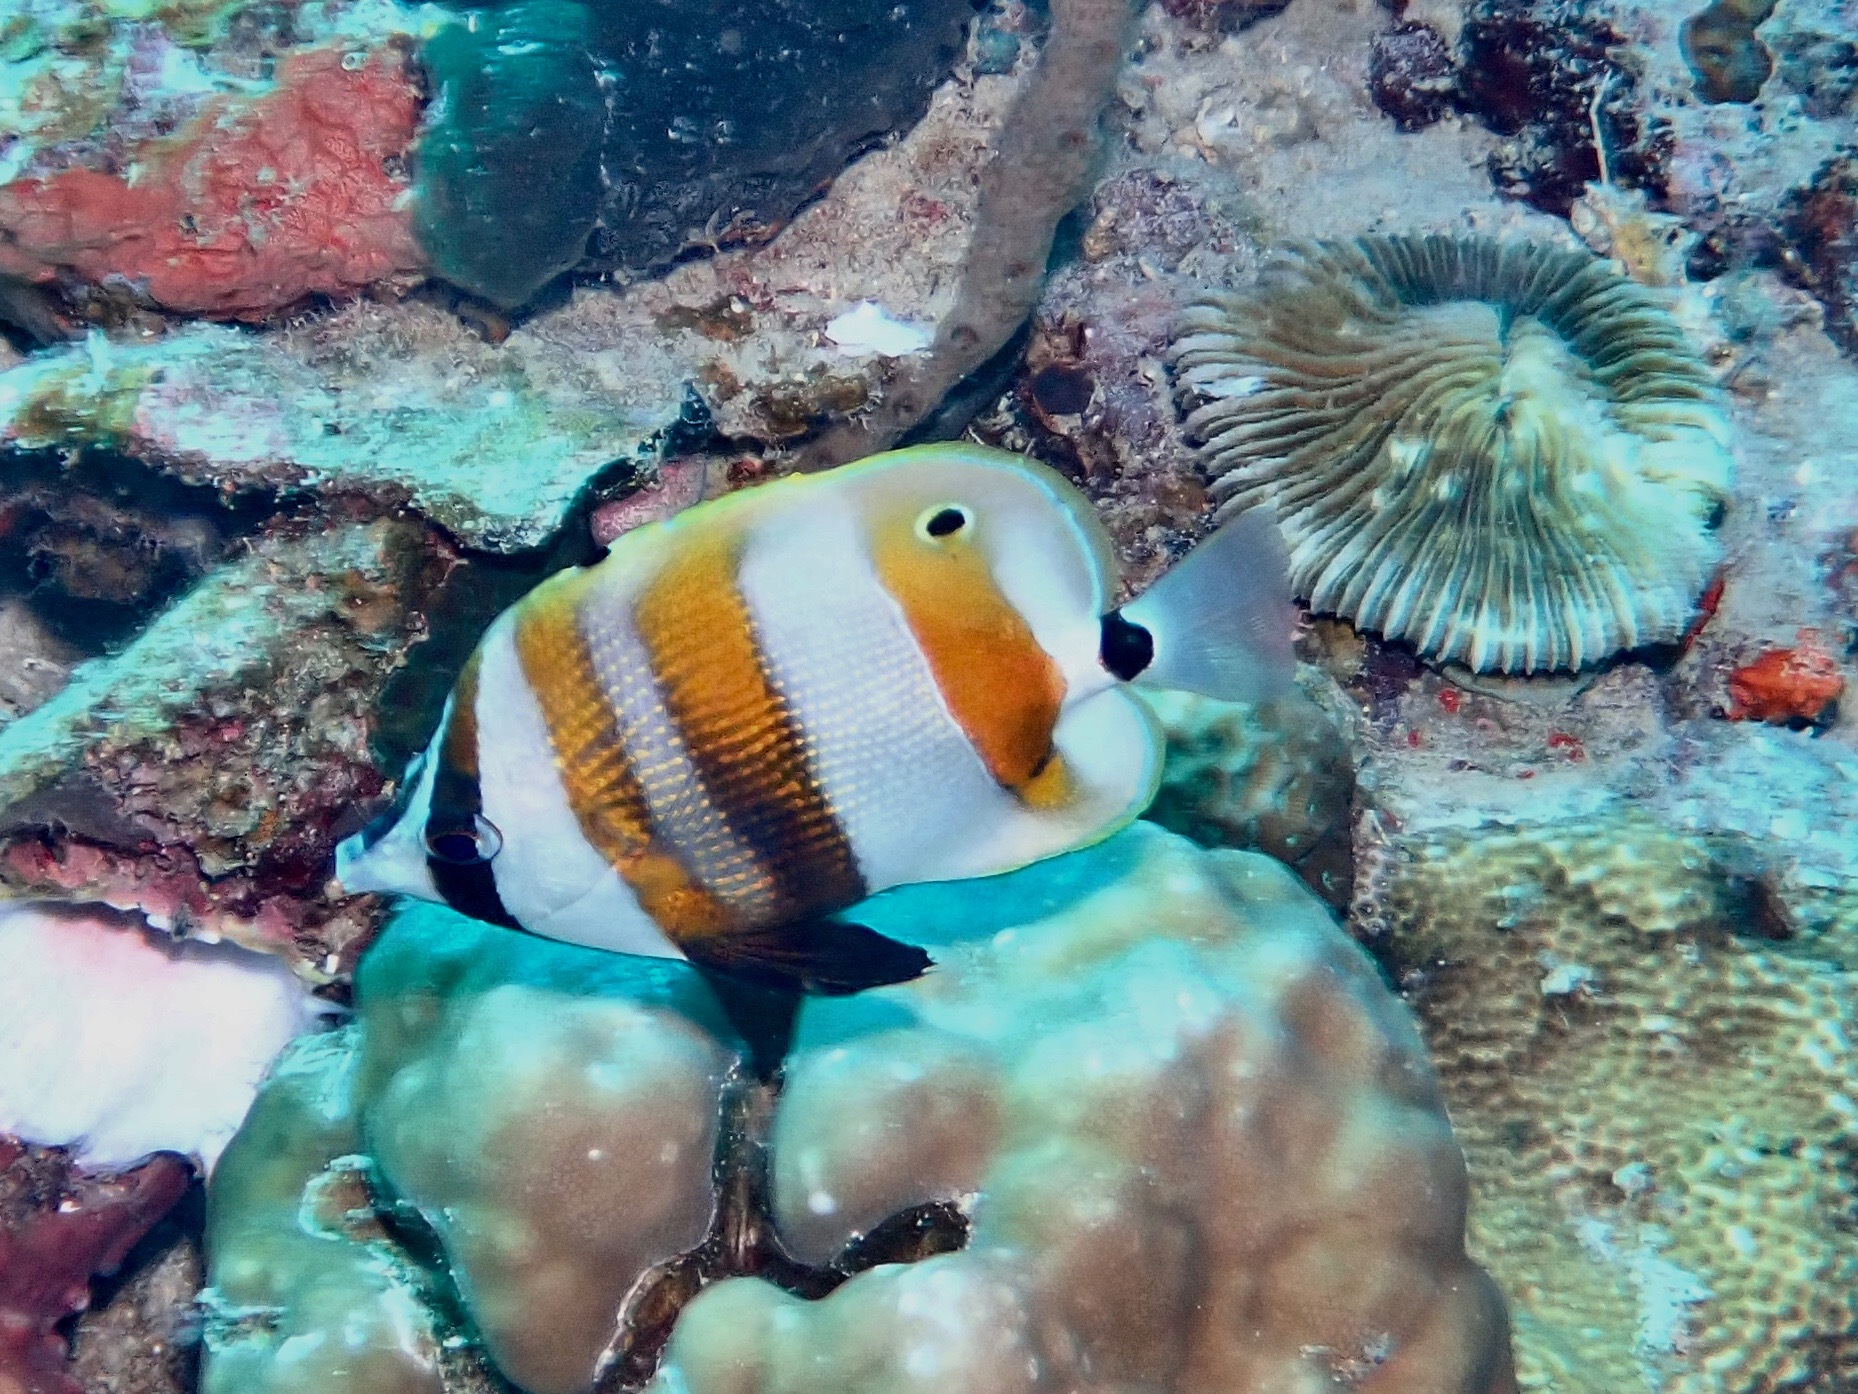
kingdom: Animalia
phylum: Chordata
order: Perciformes
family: Chaetodontidae
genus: Coradion
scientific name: Coradion chrysozonus
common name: Orange-banded coralfish
